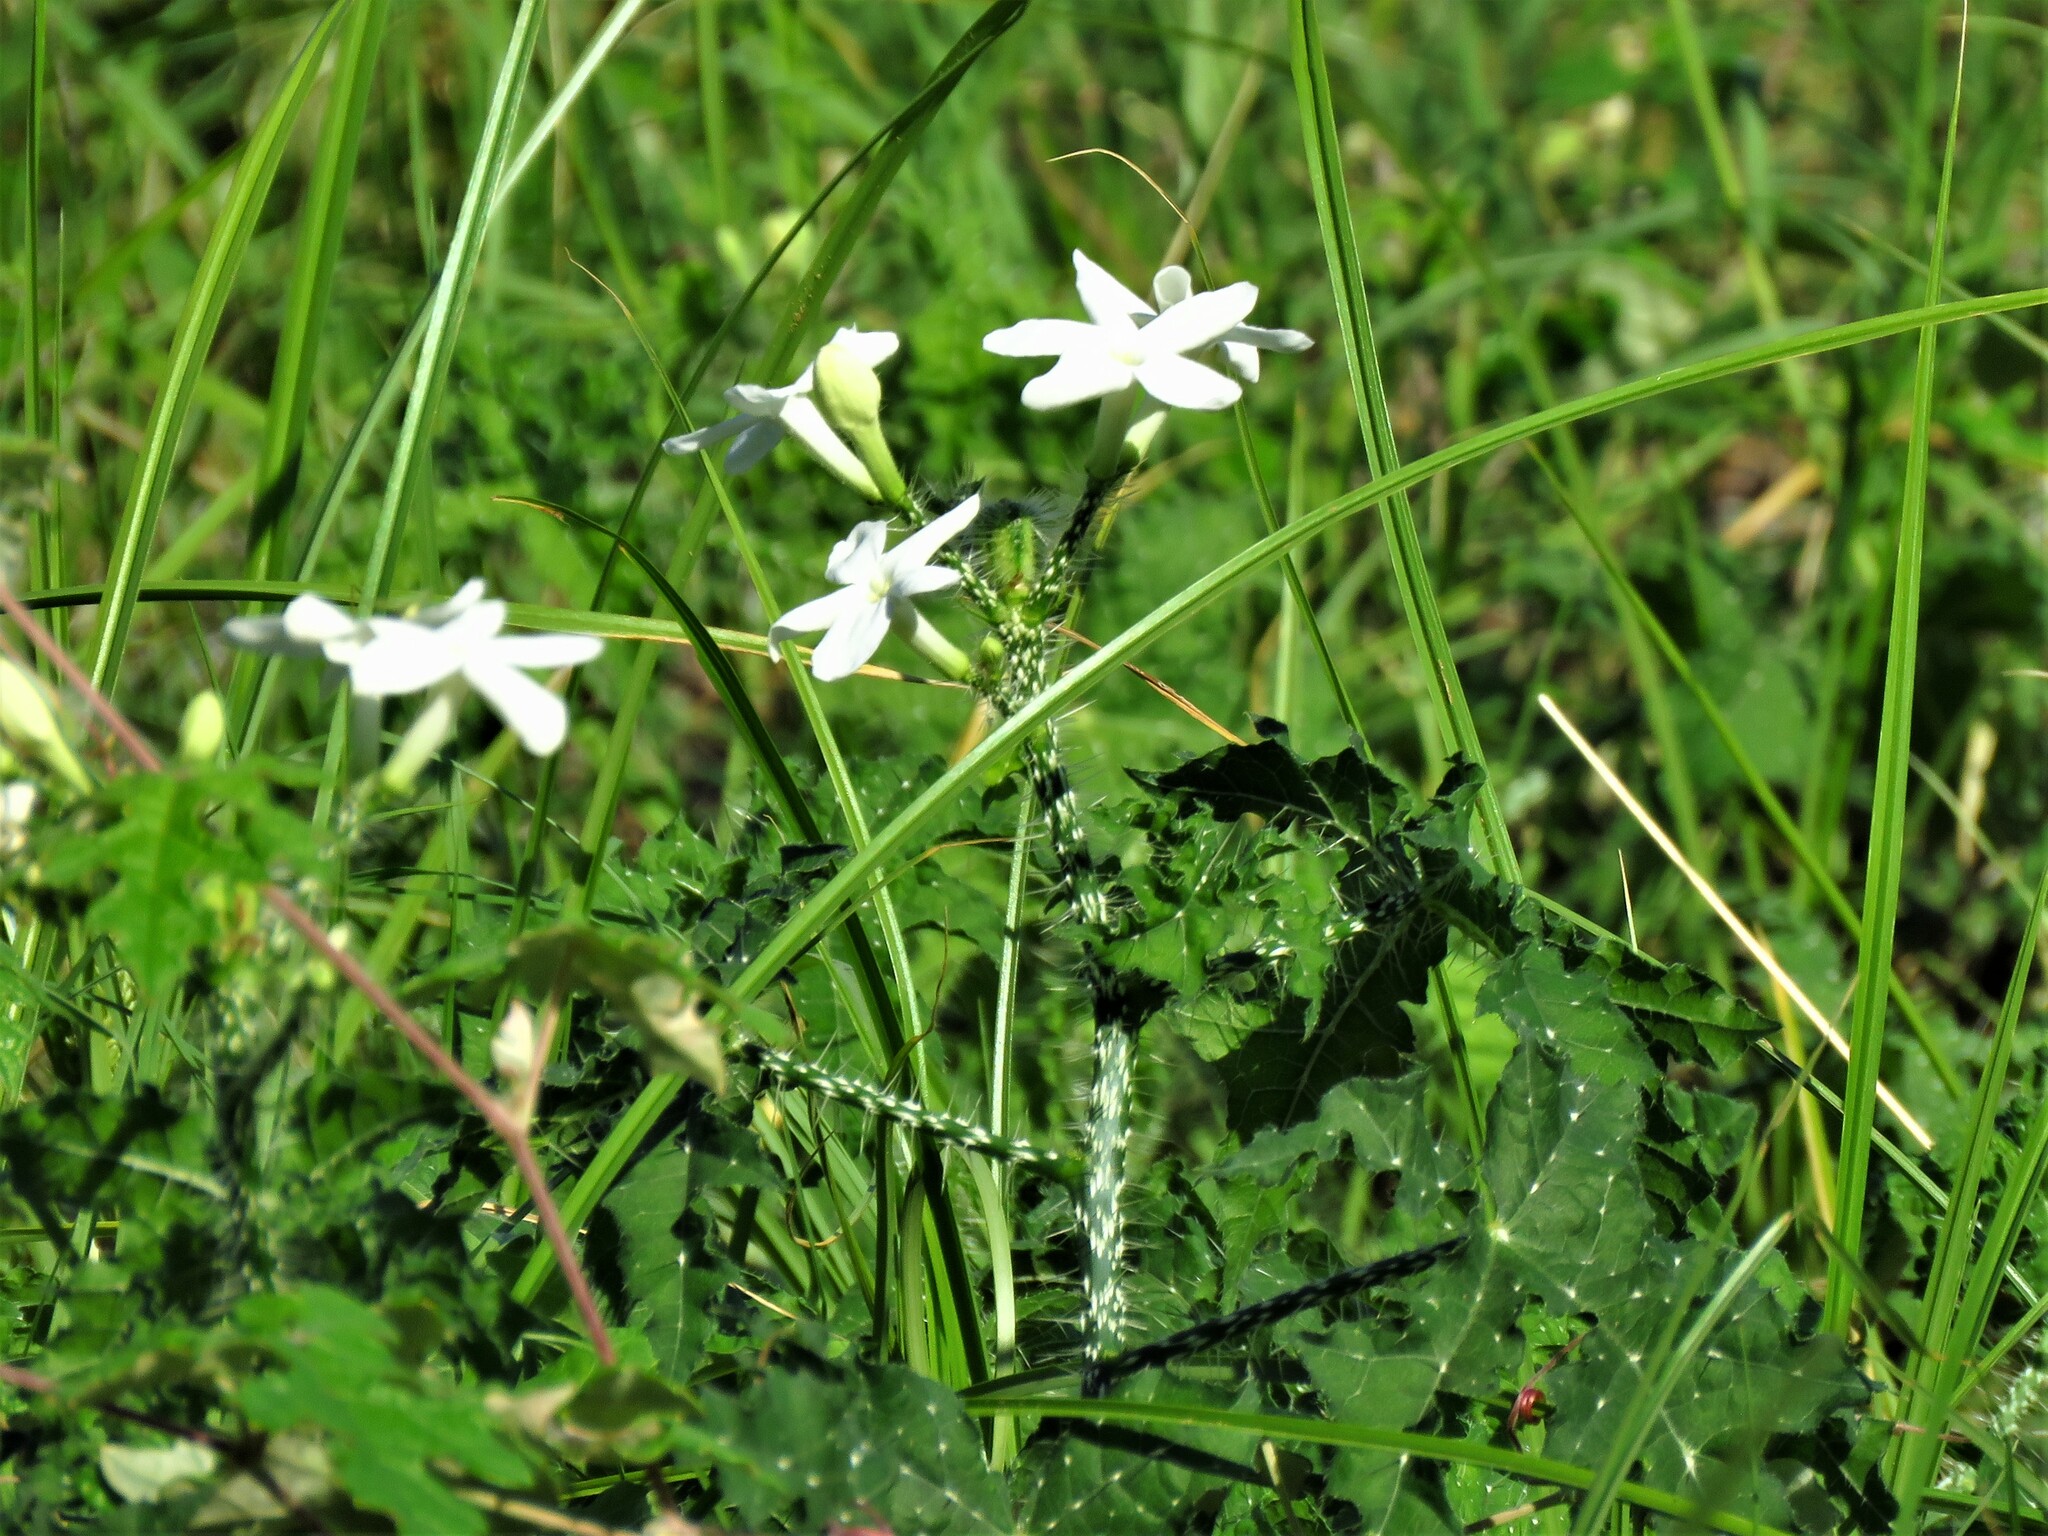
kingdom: Plantae
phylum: Tracheophyta
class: Magnoliopsida
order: Malpighiales
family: Euphorbiaceae
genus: Cnidoscolus
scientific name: Cnidoscolus texanus
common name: Texas bull-nettle
